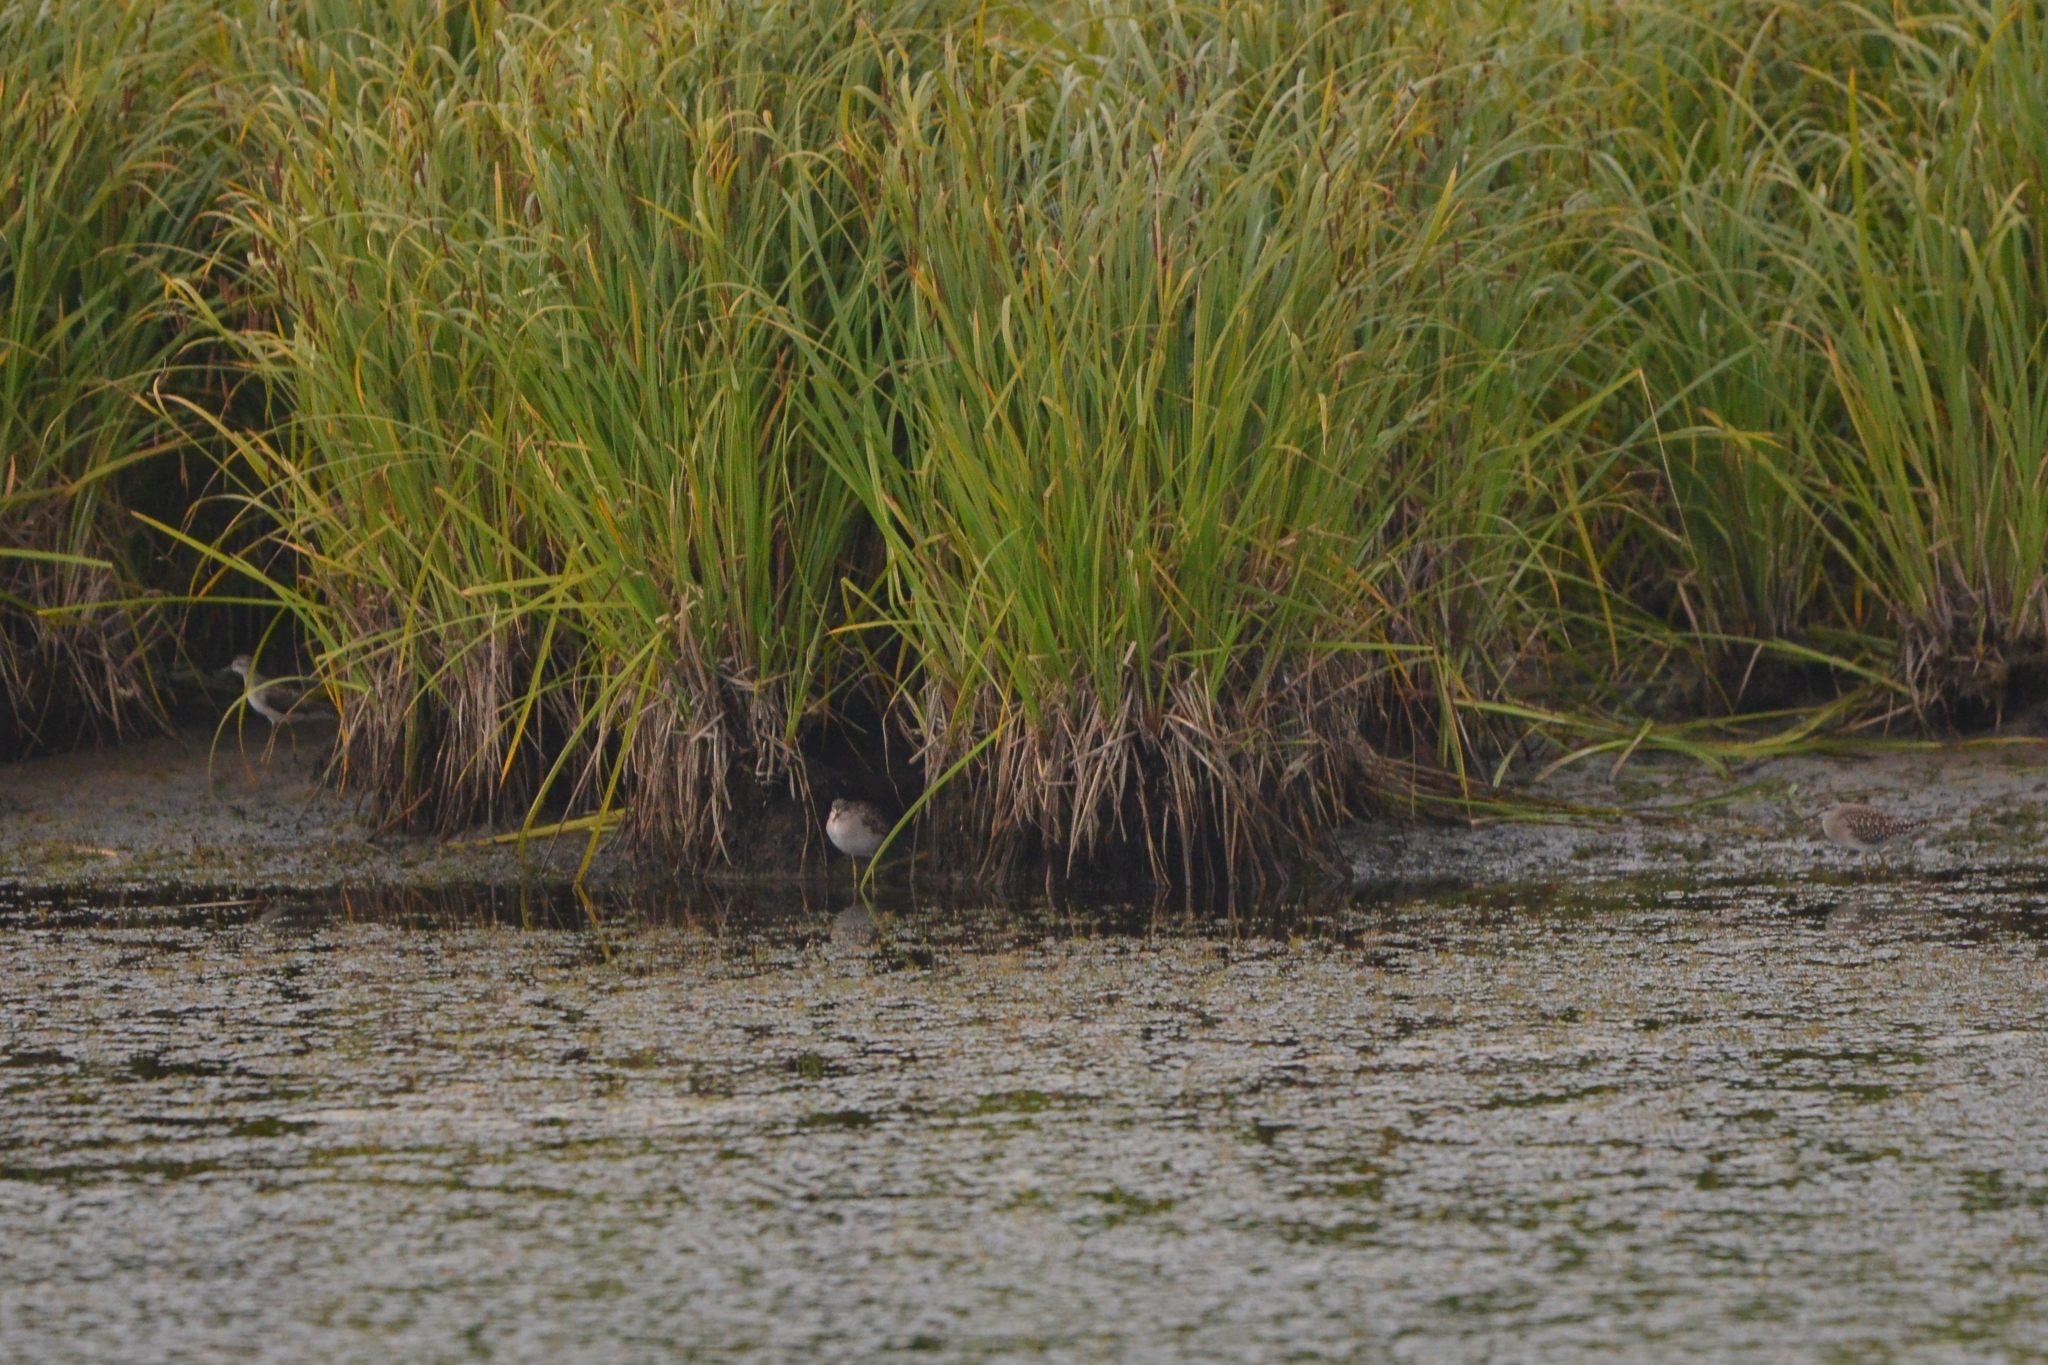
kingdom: Animalia
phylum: Chordata
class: Aves
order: Charadriiformes
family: Scolopacidae
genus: Tringa
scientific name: Tringa glareola
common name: Wood sandpiper
